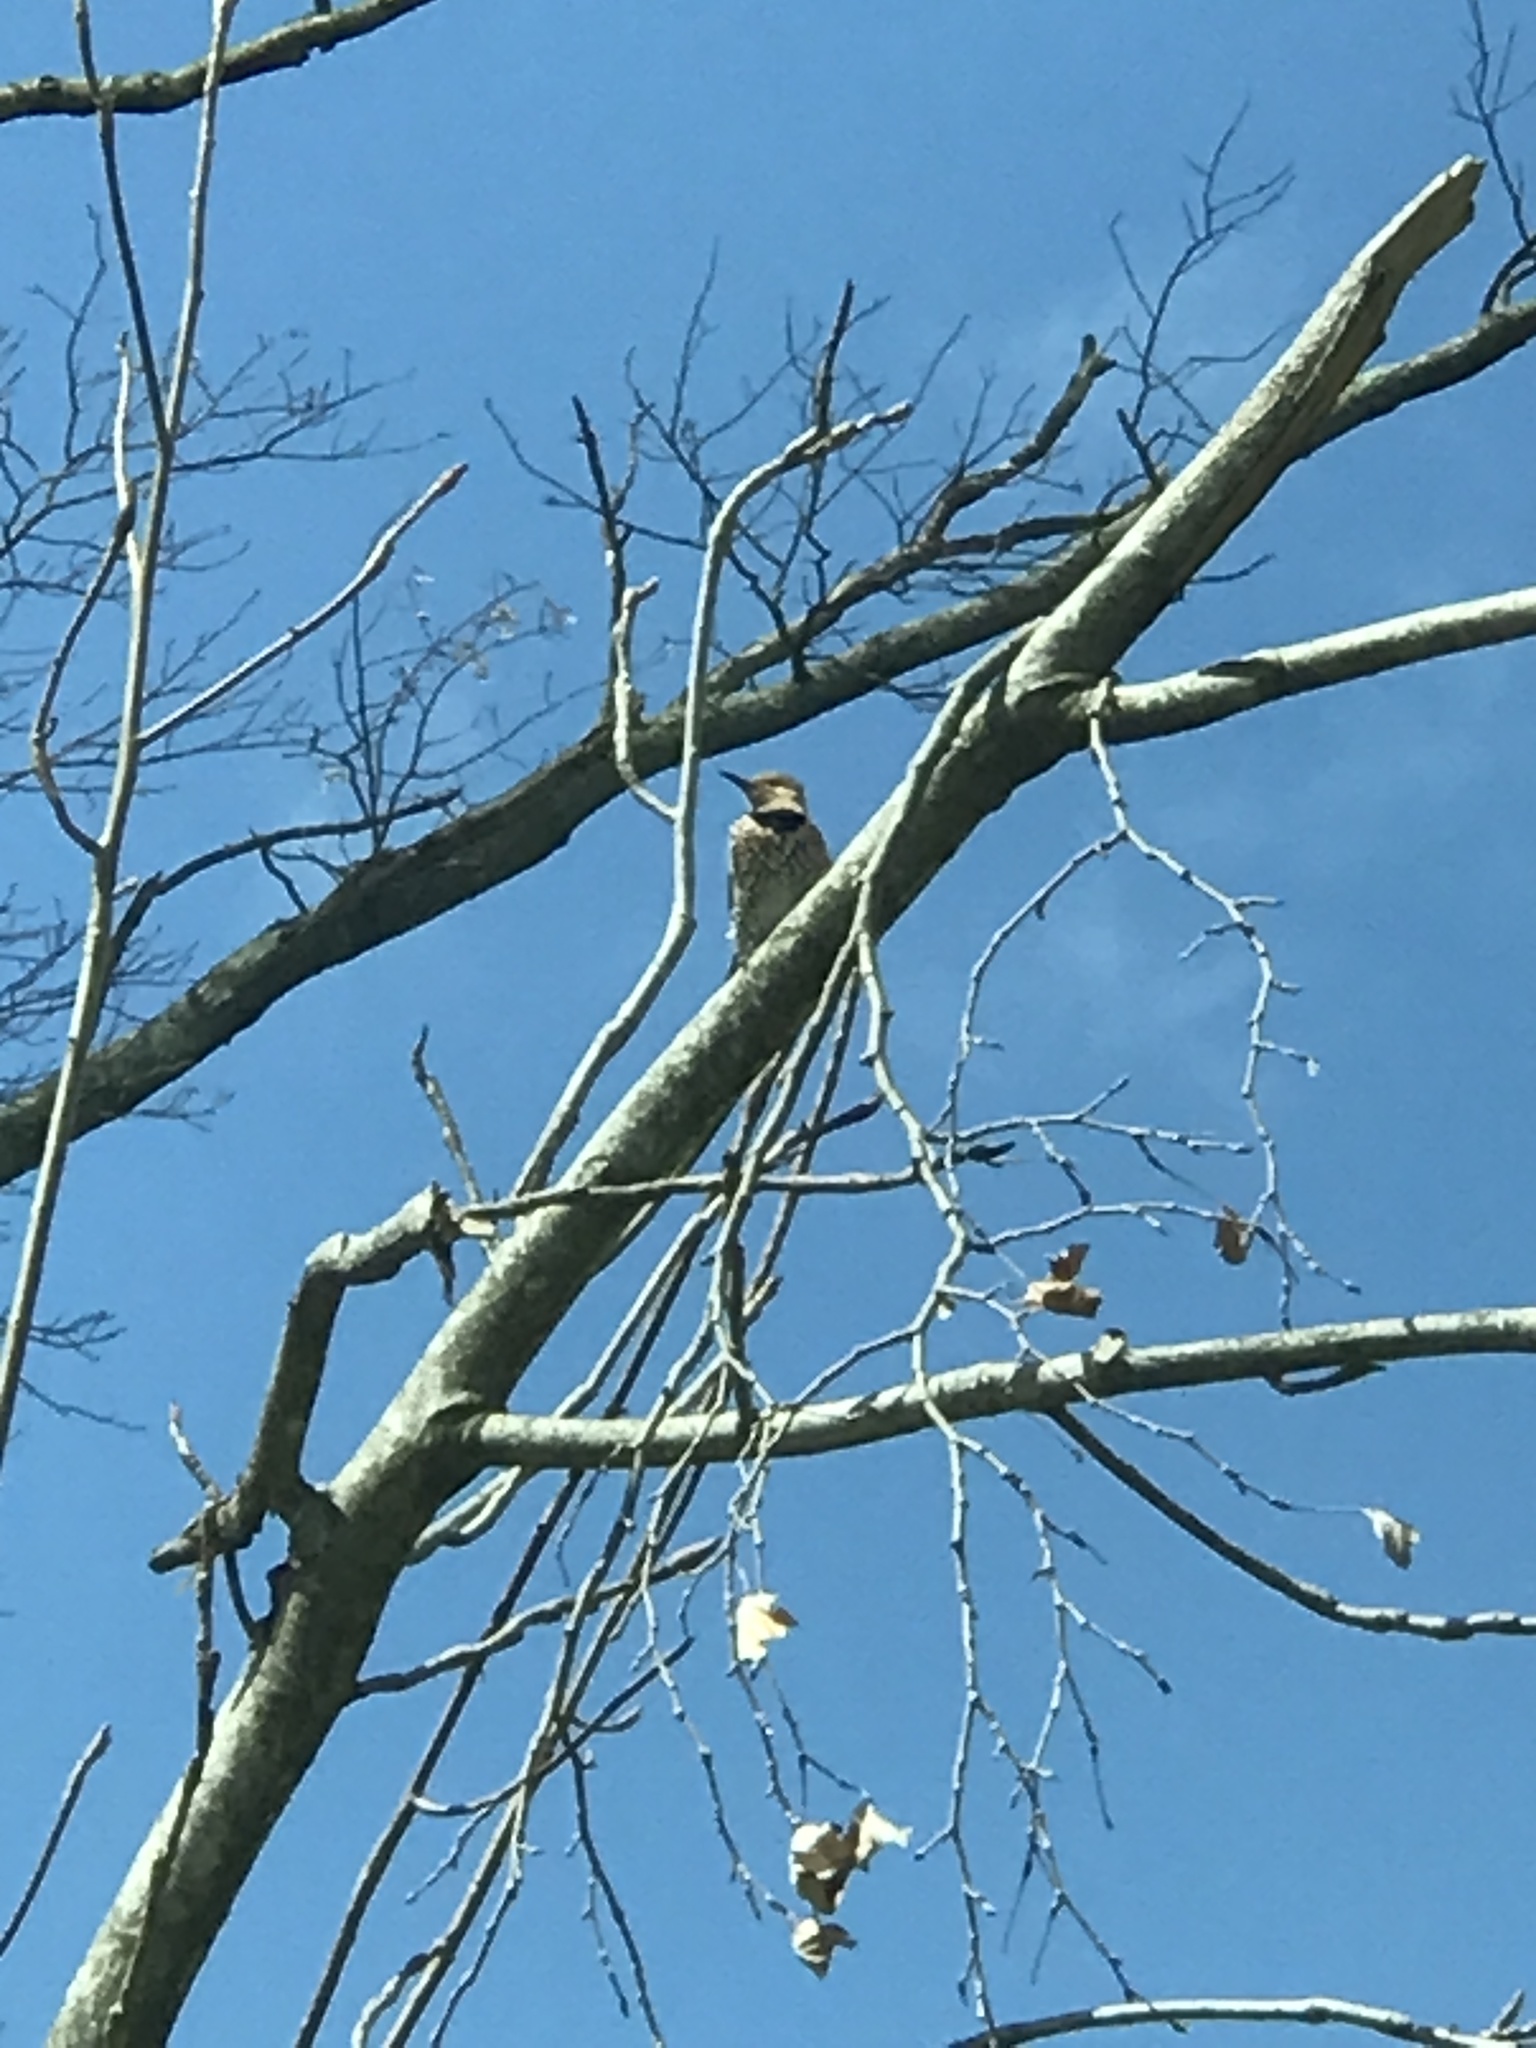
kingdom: Animalia
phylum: Chordata
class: Aves
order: Piciformes
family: Picidae
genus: Colaptes
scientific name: Colaptes auratus
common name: Northern flicker
